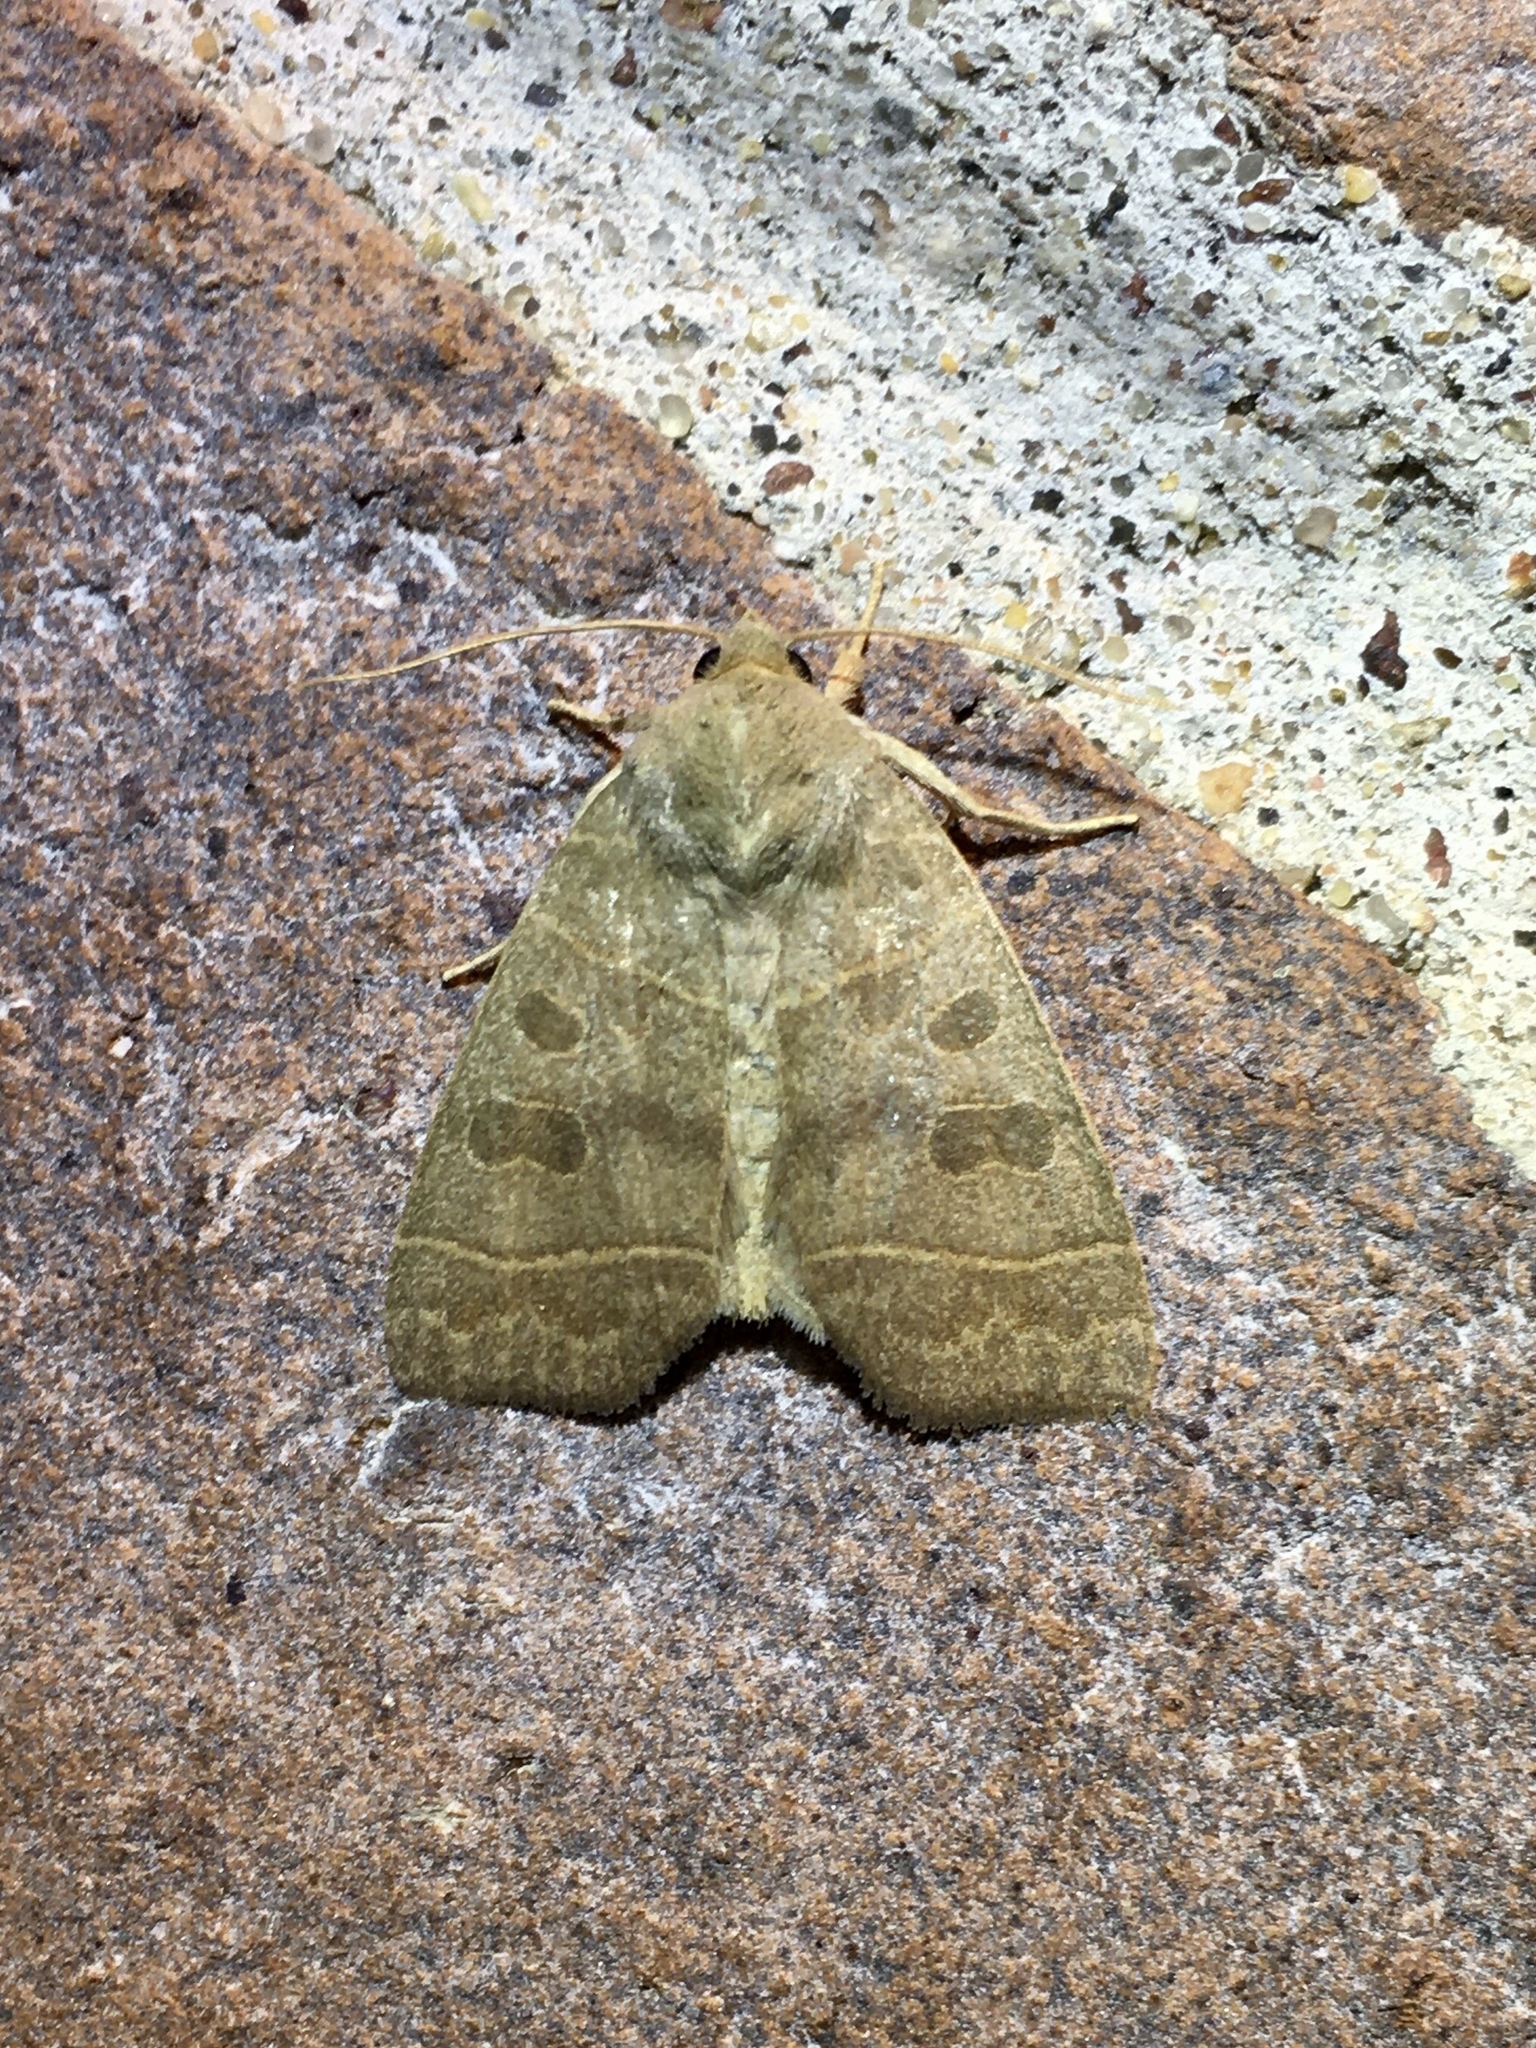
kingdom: Animalia
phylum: Arthropoda
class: Insecta
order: Lepidoptera
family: Noctuidae
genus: Ipimorpha
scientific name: Ipimorpha pleonectusa
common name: Even-lined sallow
